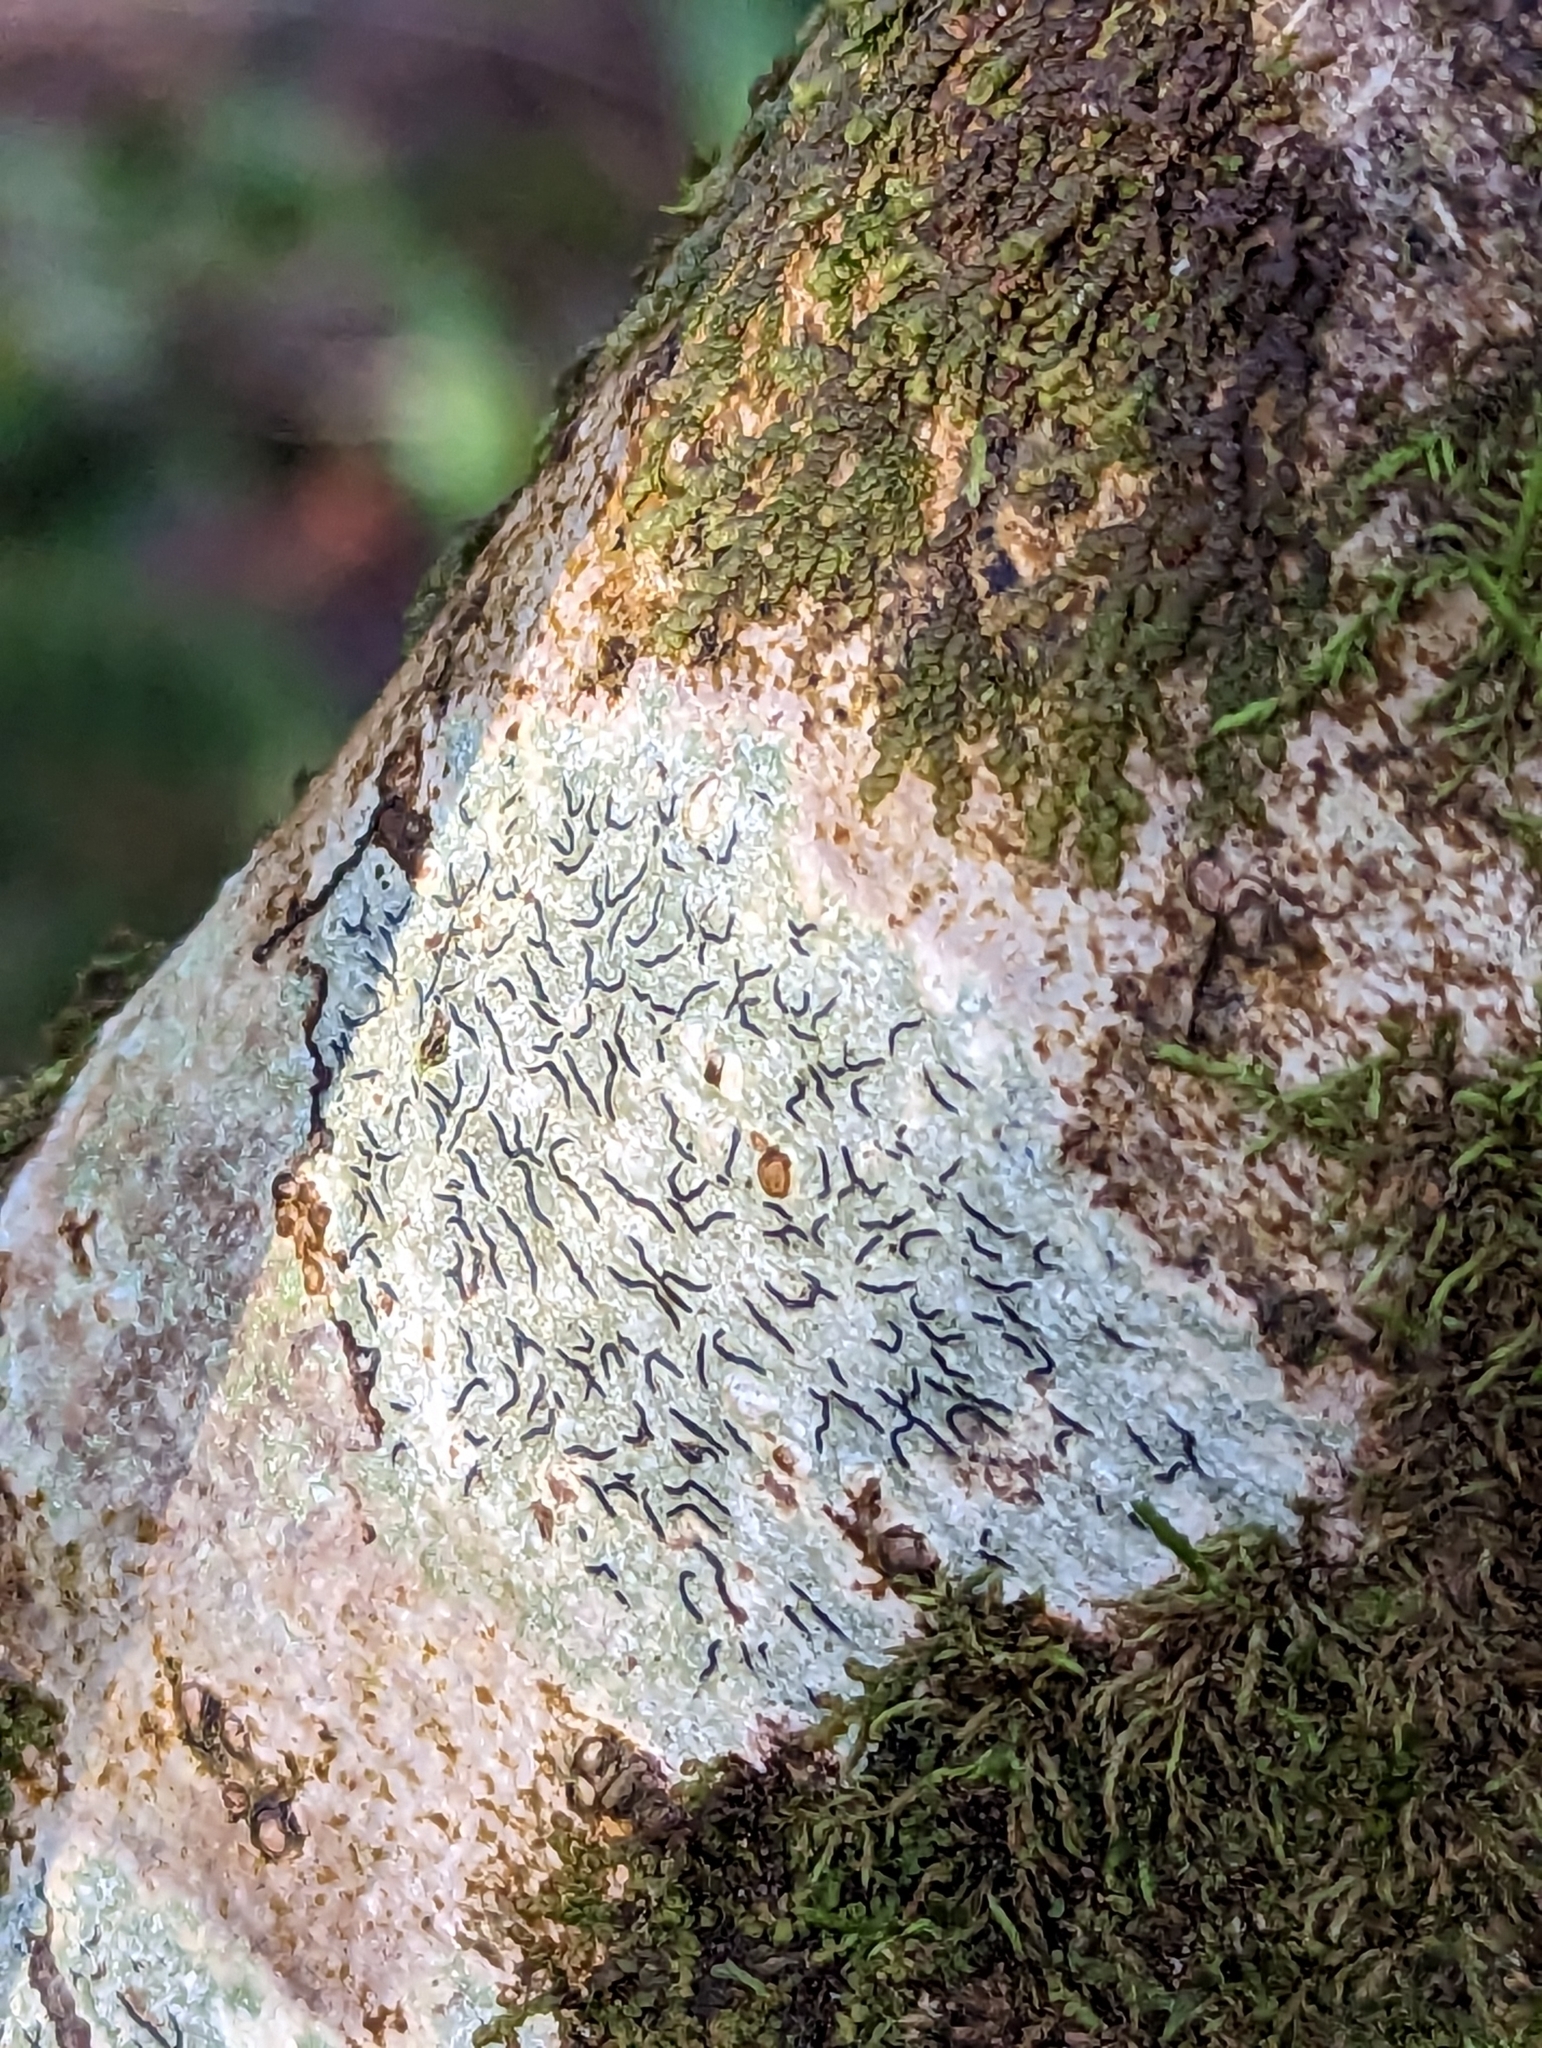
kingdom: Fungi
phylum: Ascomycota
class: Lecanoromycetes
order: Ostropales
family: Graphidaceae
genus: Graphis
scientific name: Graphis scripta
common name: Script lichen
